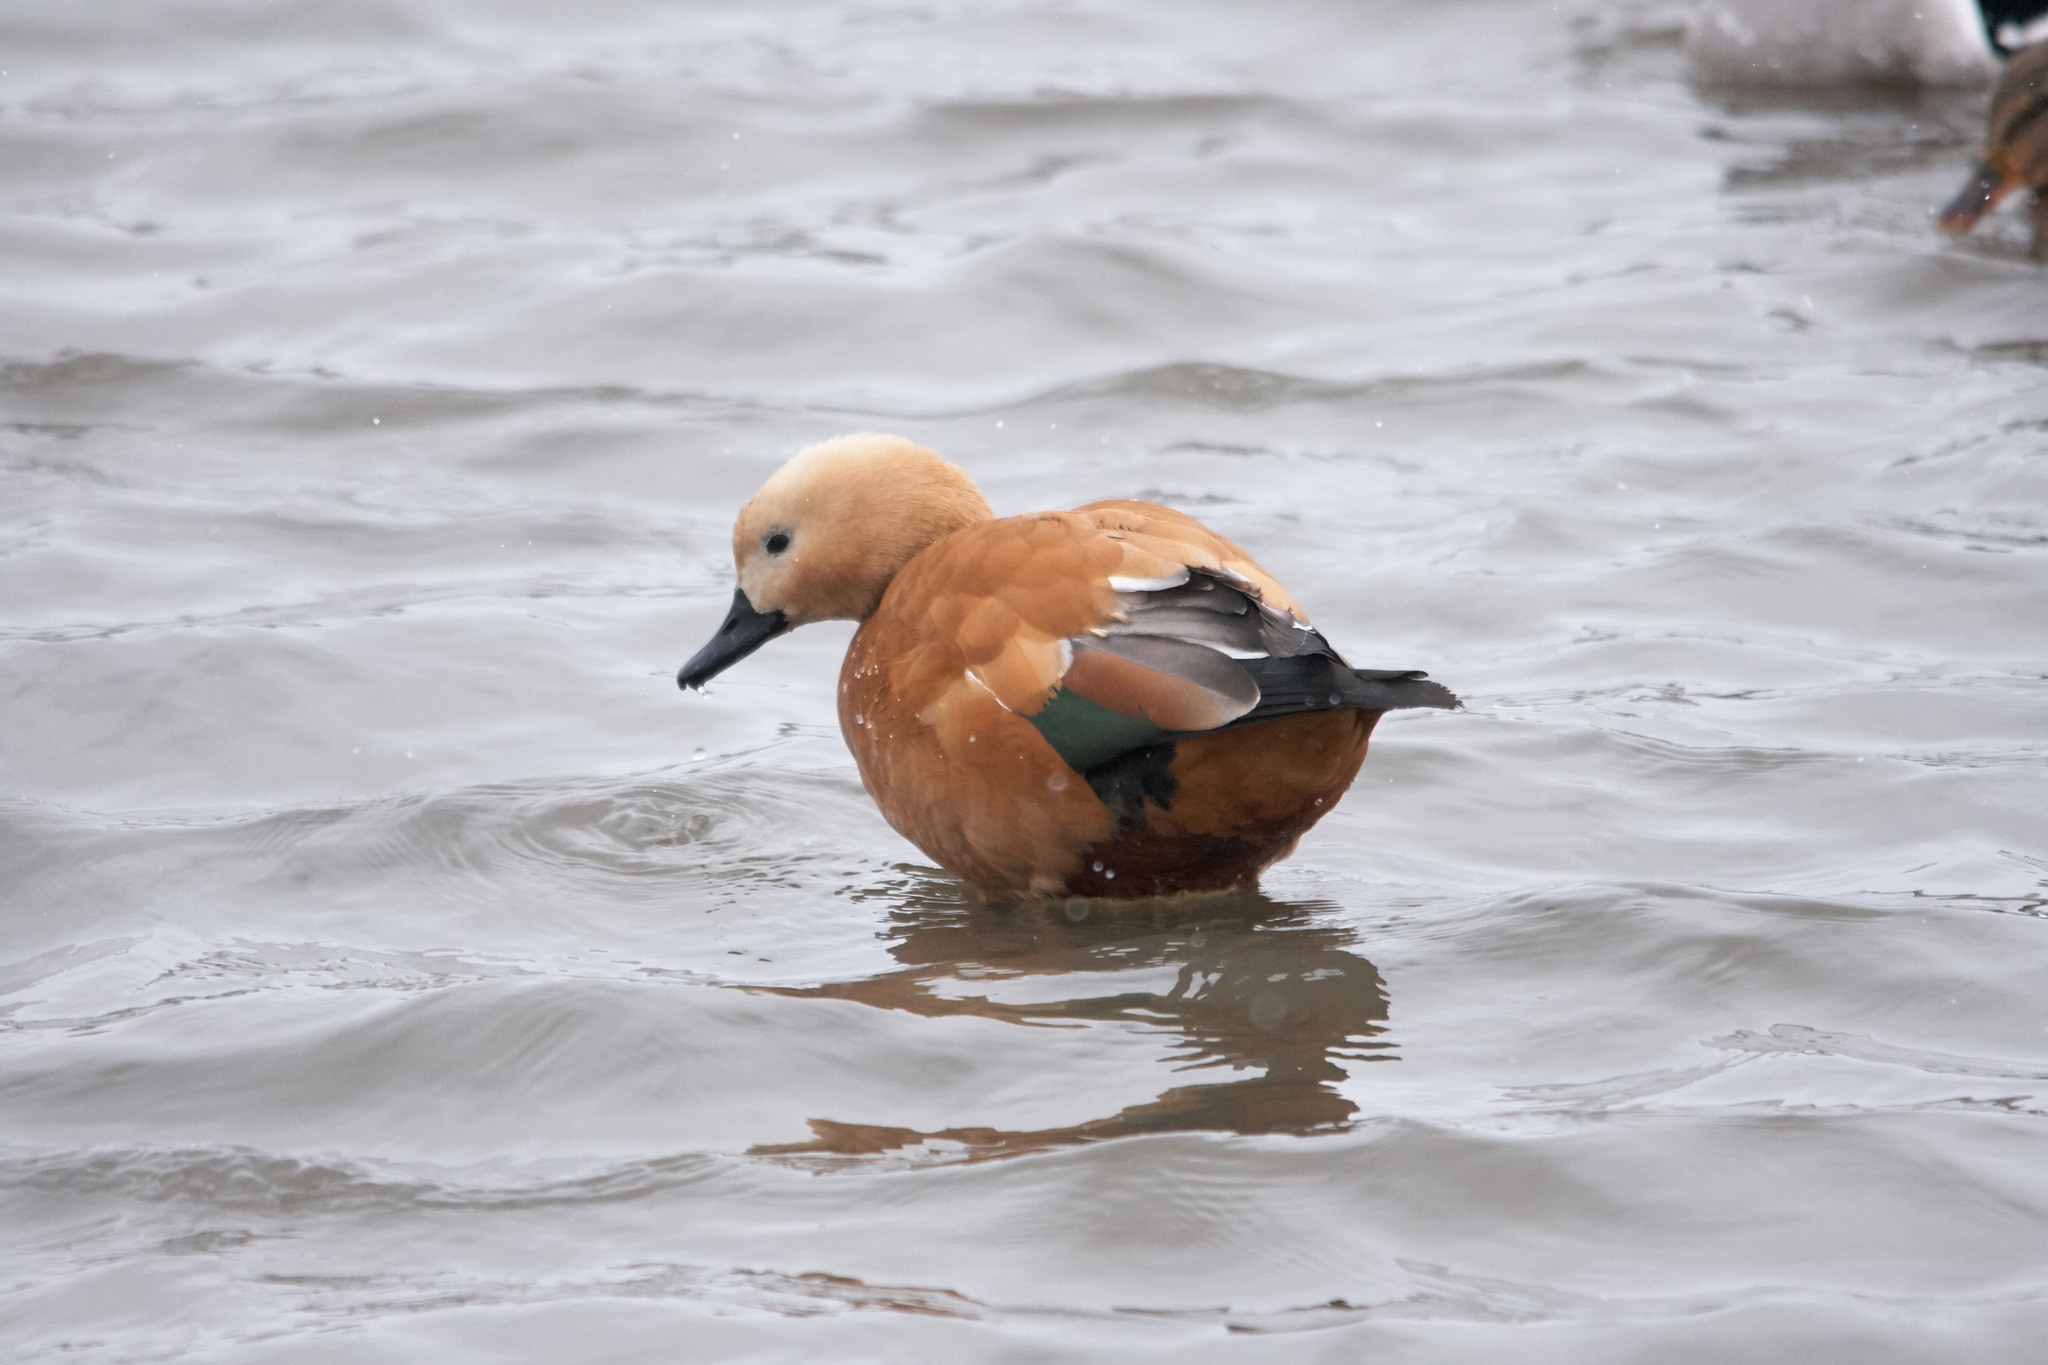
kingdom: Animalia
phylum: Chordata
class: Aves
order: Anseriformes
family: Anatidae
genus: Tadorna
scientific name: Tadorna ferruginea
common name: Ruddy shelduck
